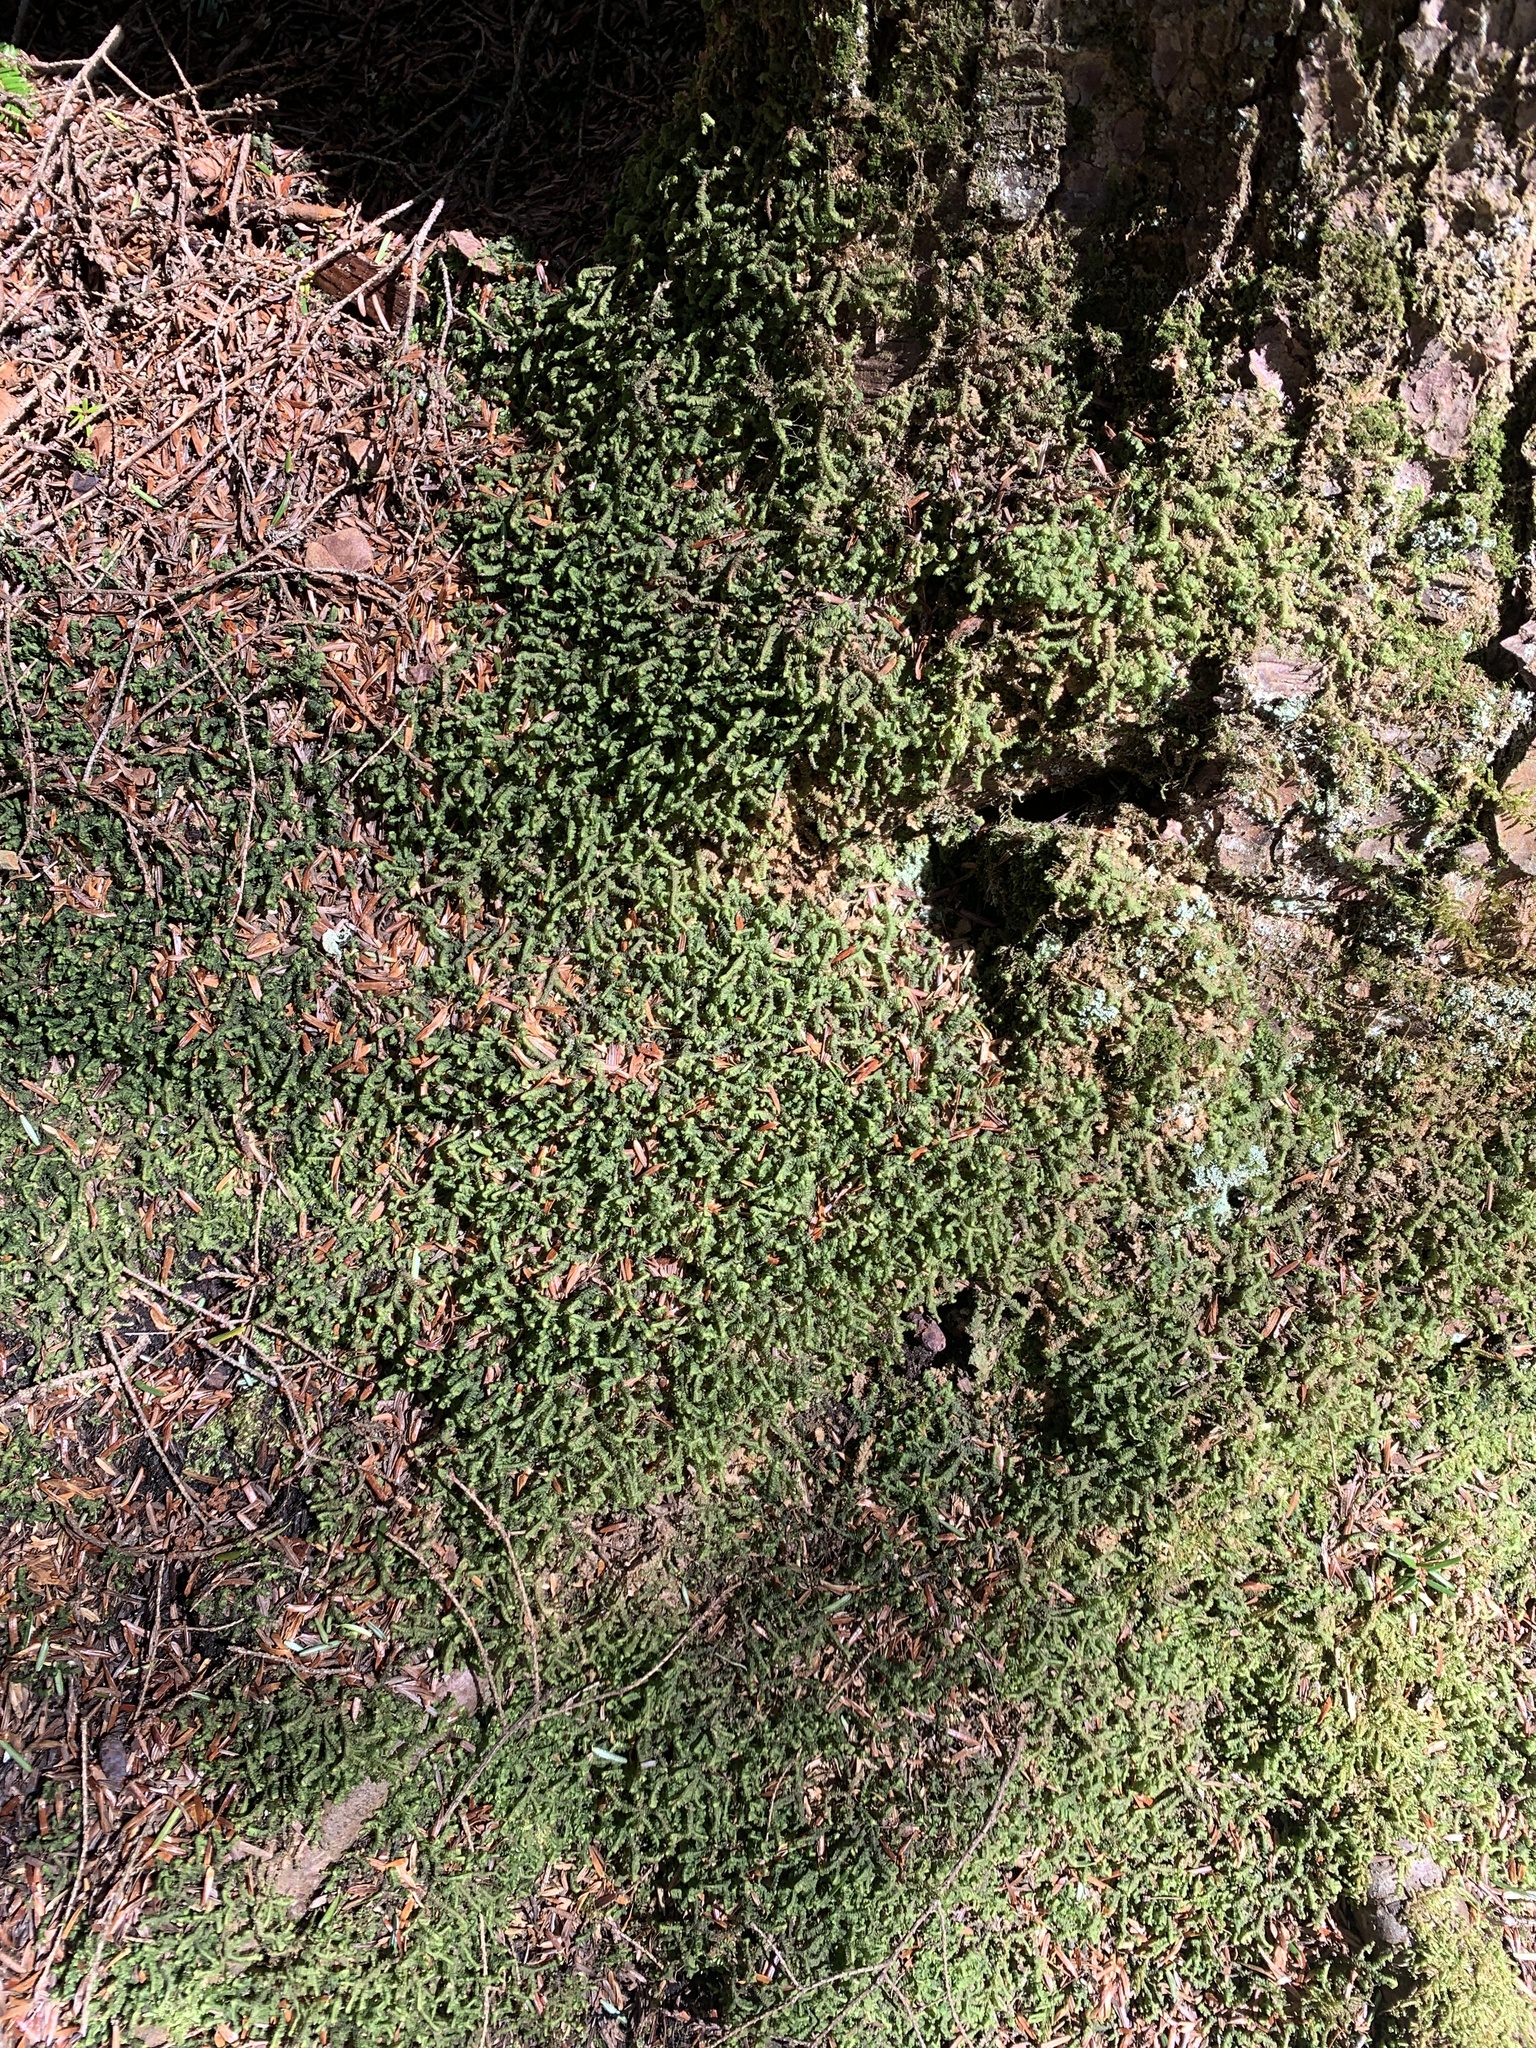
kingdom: Plantae
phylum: Marchantiophyta
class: Jungermanniopsida
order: Jungermanniales
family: Lepidoziaceae
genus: Bazzania
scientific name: Bazzania trilobata
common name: Three-lobed whipwort
